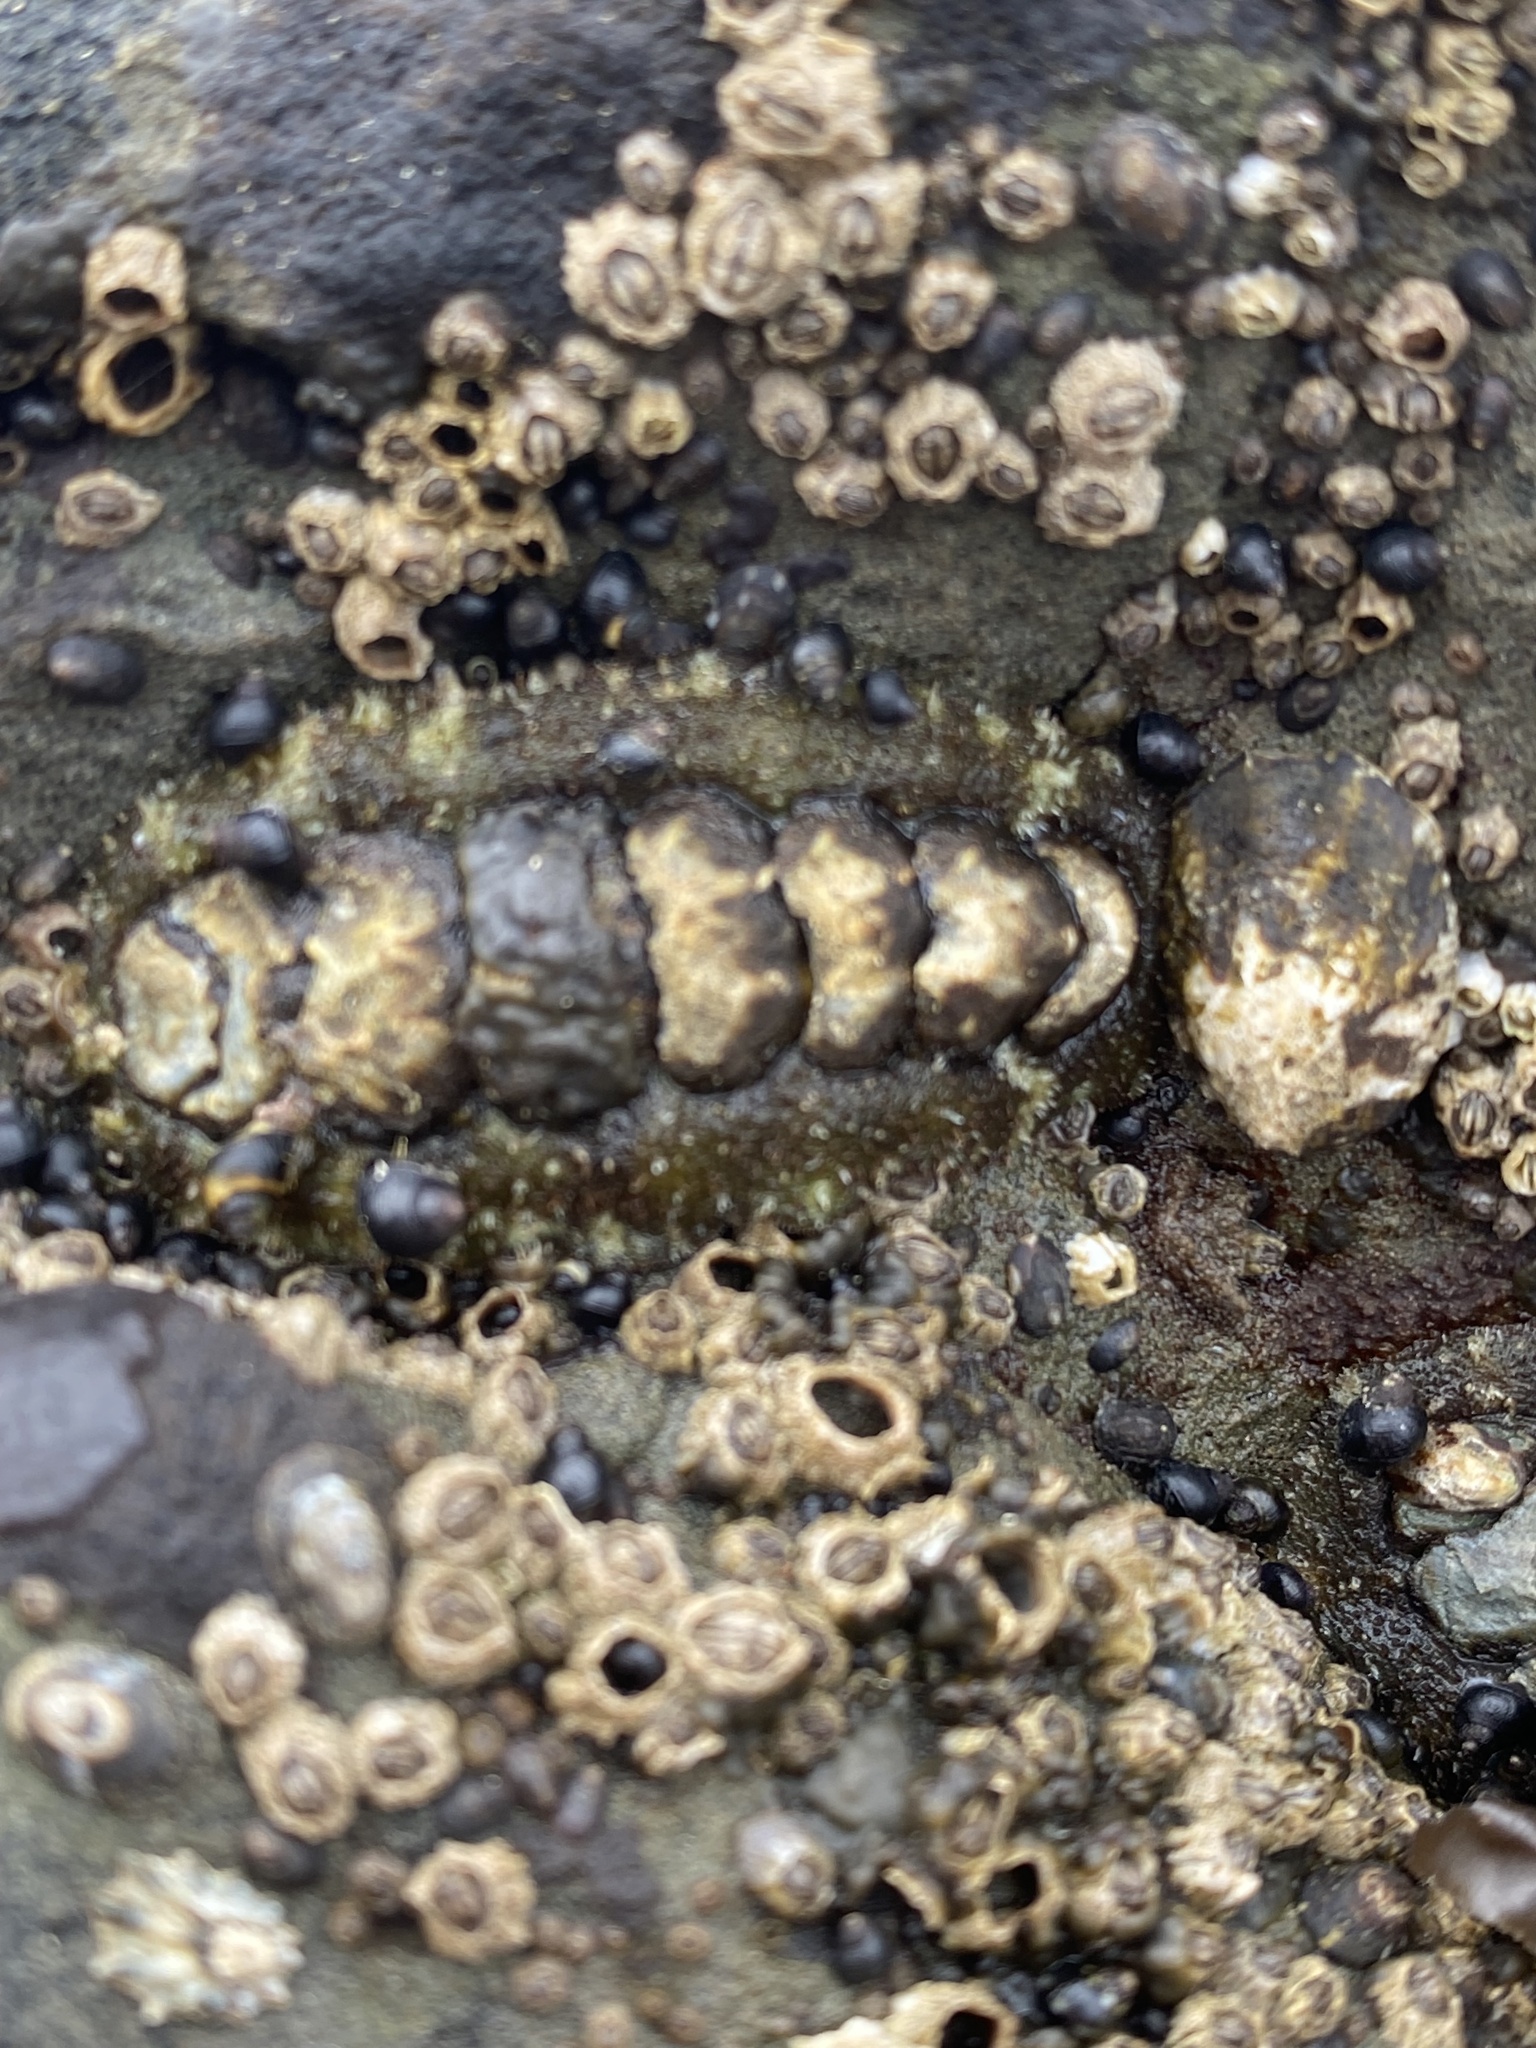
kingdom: Animalia
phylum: Mollusca
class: Polyplacophora
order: Chitonida
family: Tonicellidae
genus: Nuttallina
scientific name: Nuttallina californica
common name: California nuttall chiton
